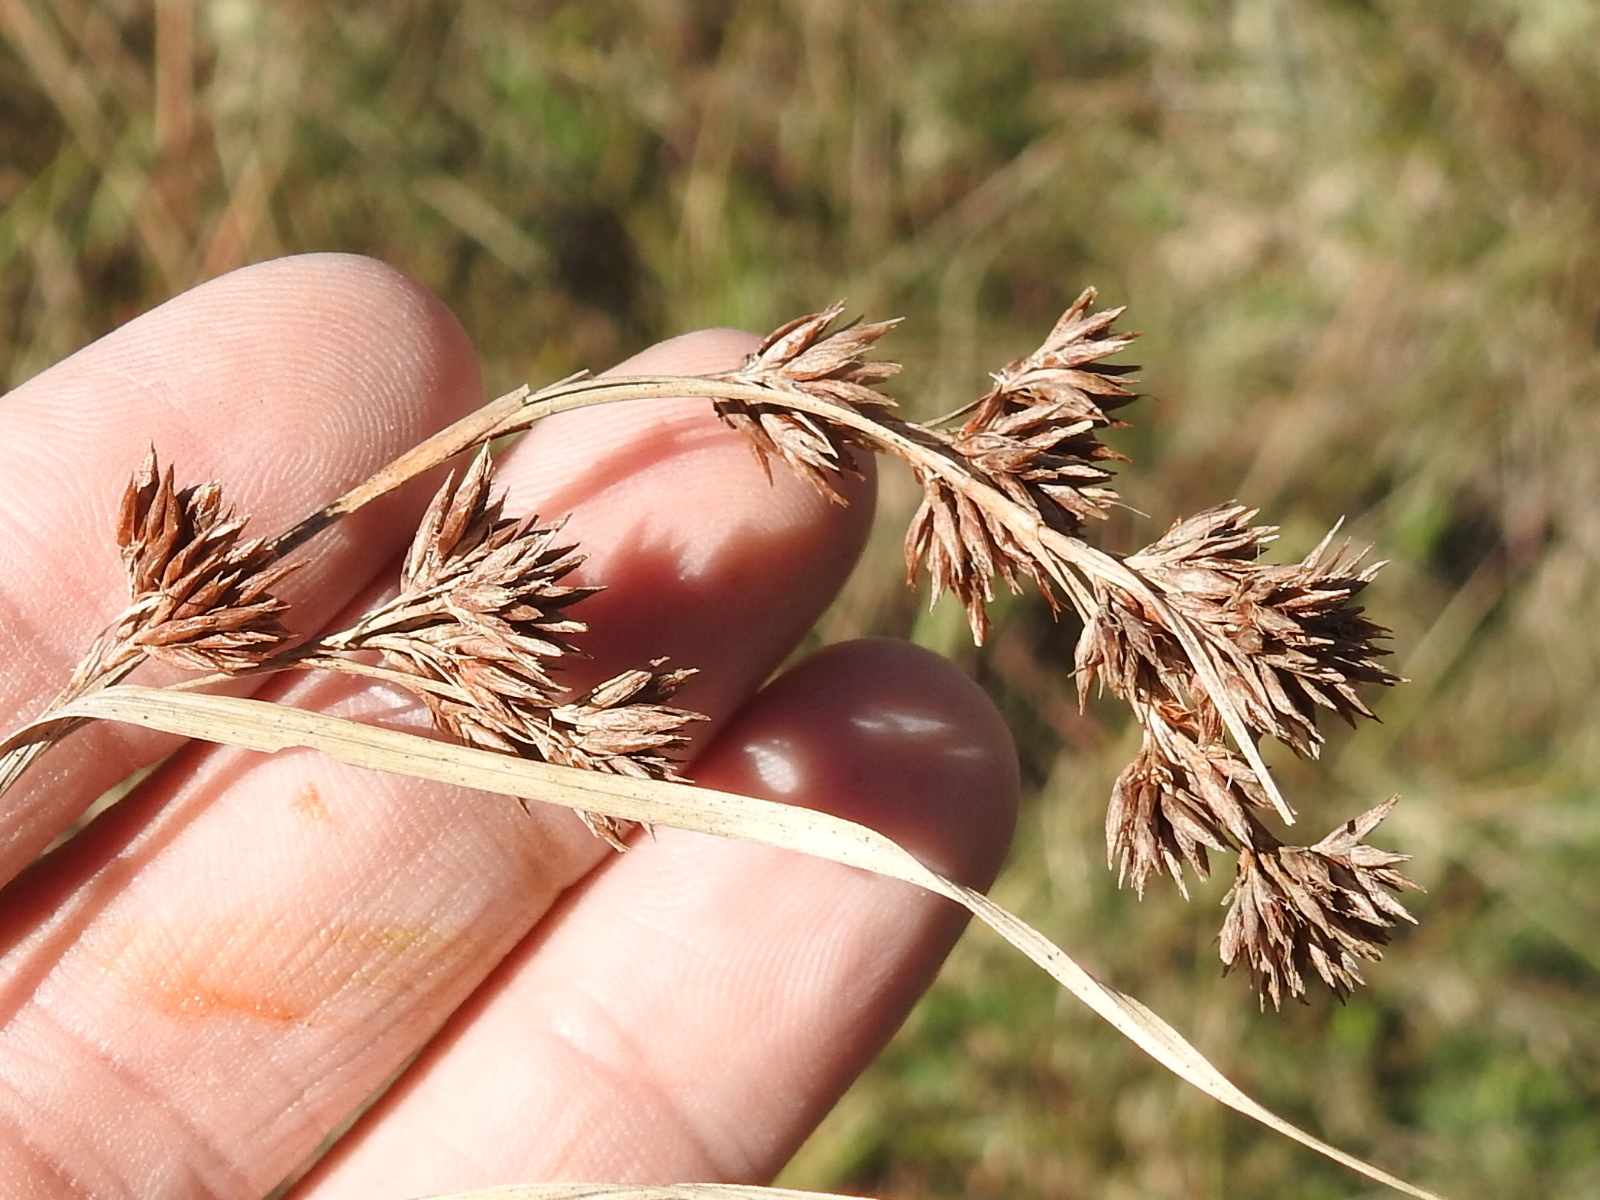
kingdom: Plantae
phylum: Tracheophyta
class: Liliopsida
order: Poales
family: Cyperaceae
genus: Rhynchospora
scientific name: Rhynchospora glomerata
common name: Cluster beak sedge
